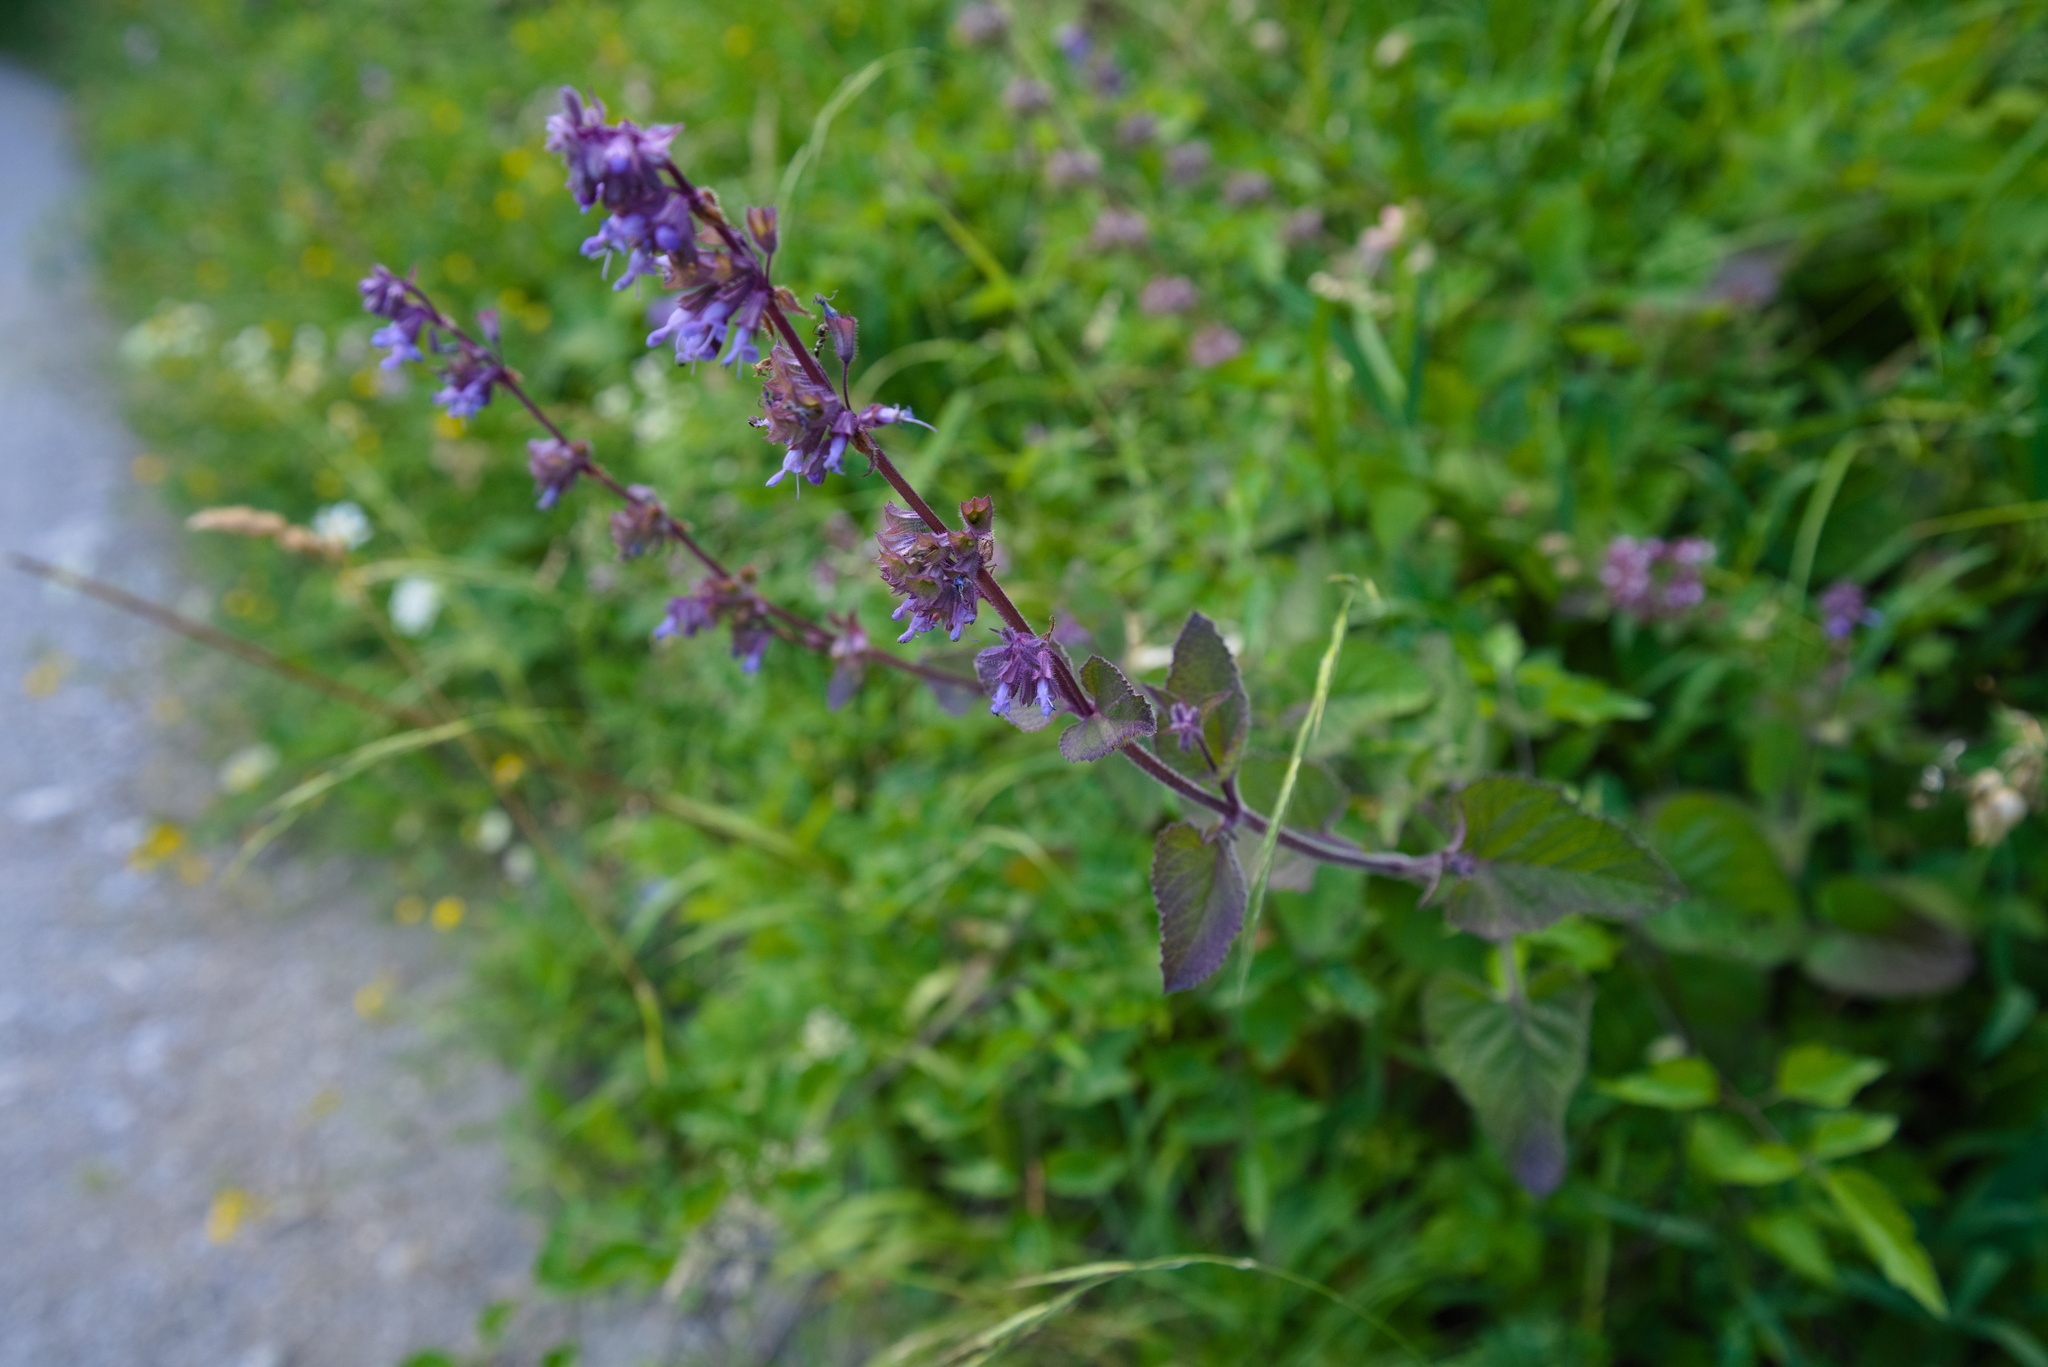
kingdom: Plantae
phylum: Tracheophyta
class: Magnoliopsida
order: Lamiales
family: Lamiaceae
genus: Salvia
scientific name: Salvia verticillata
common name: Whorled clary
